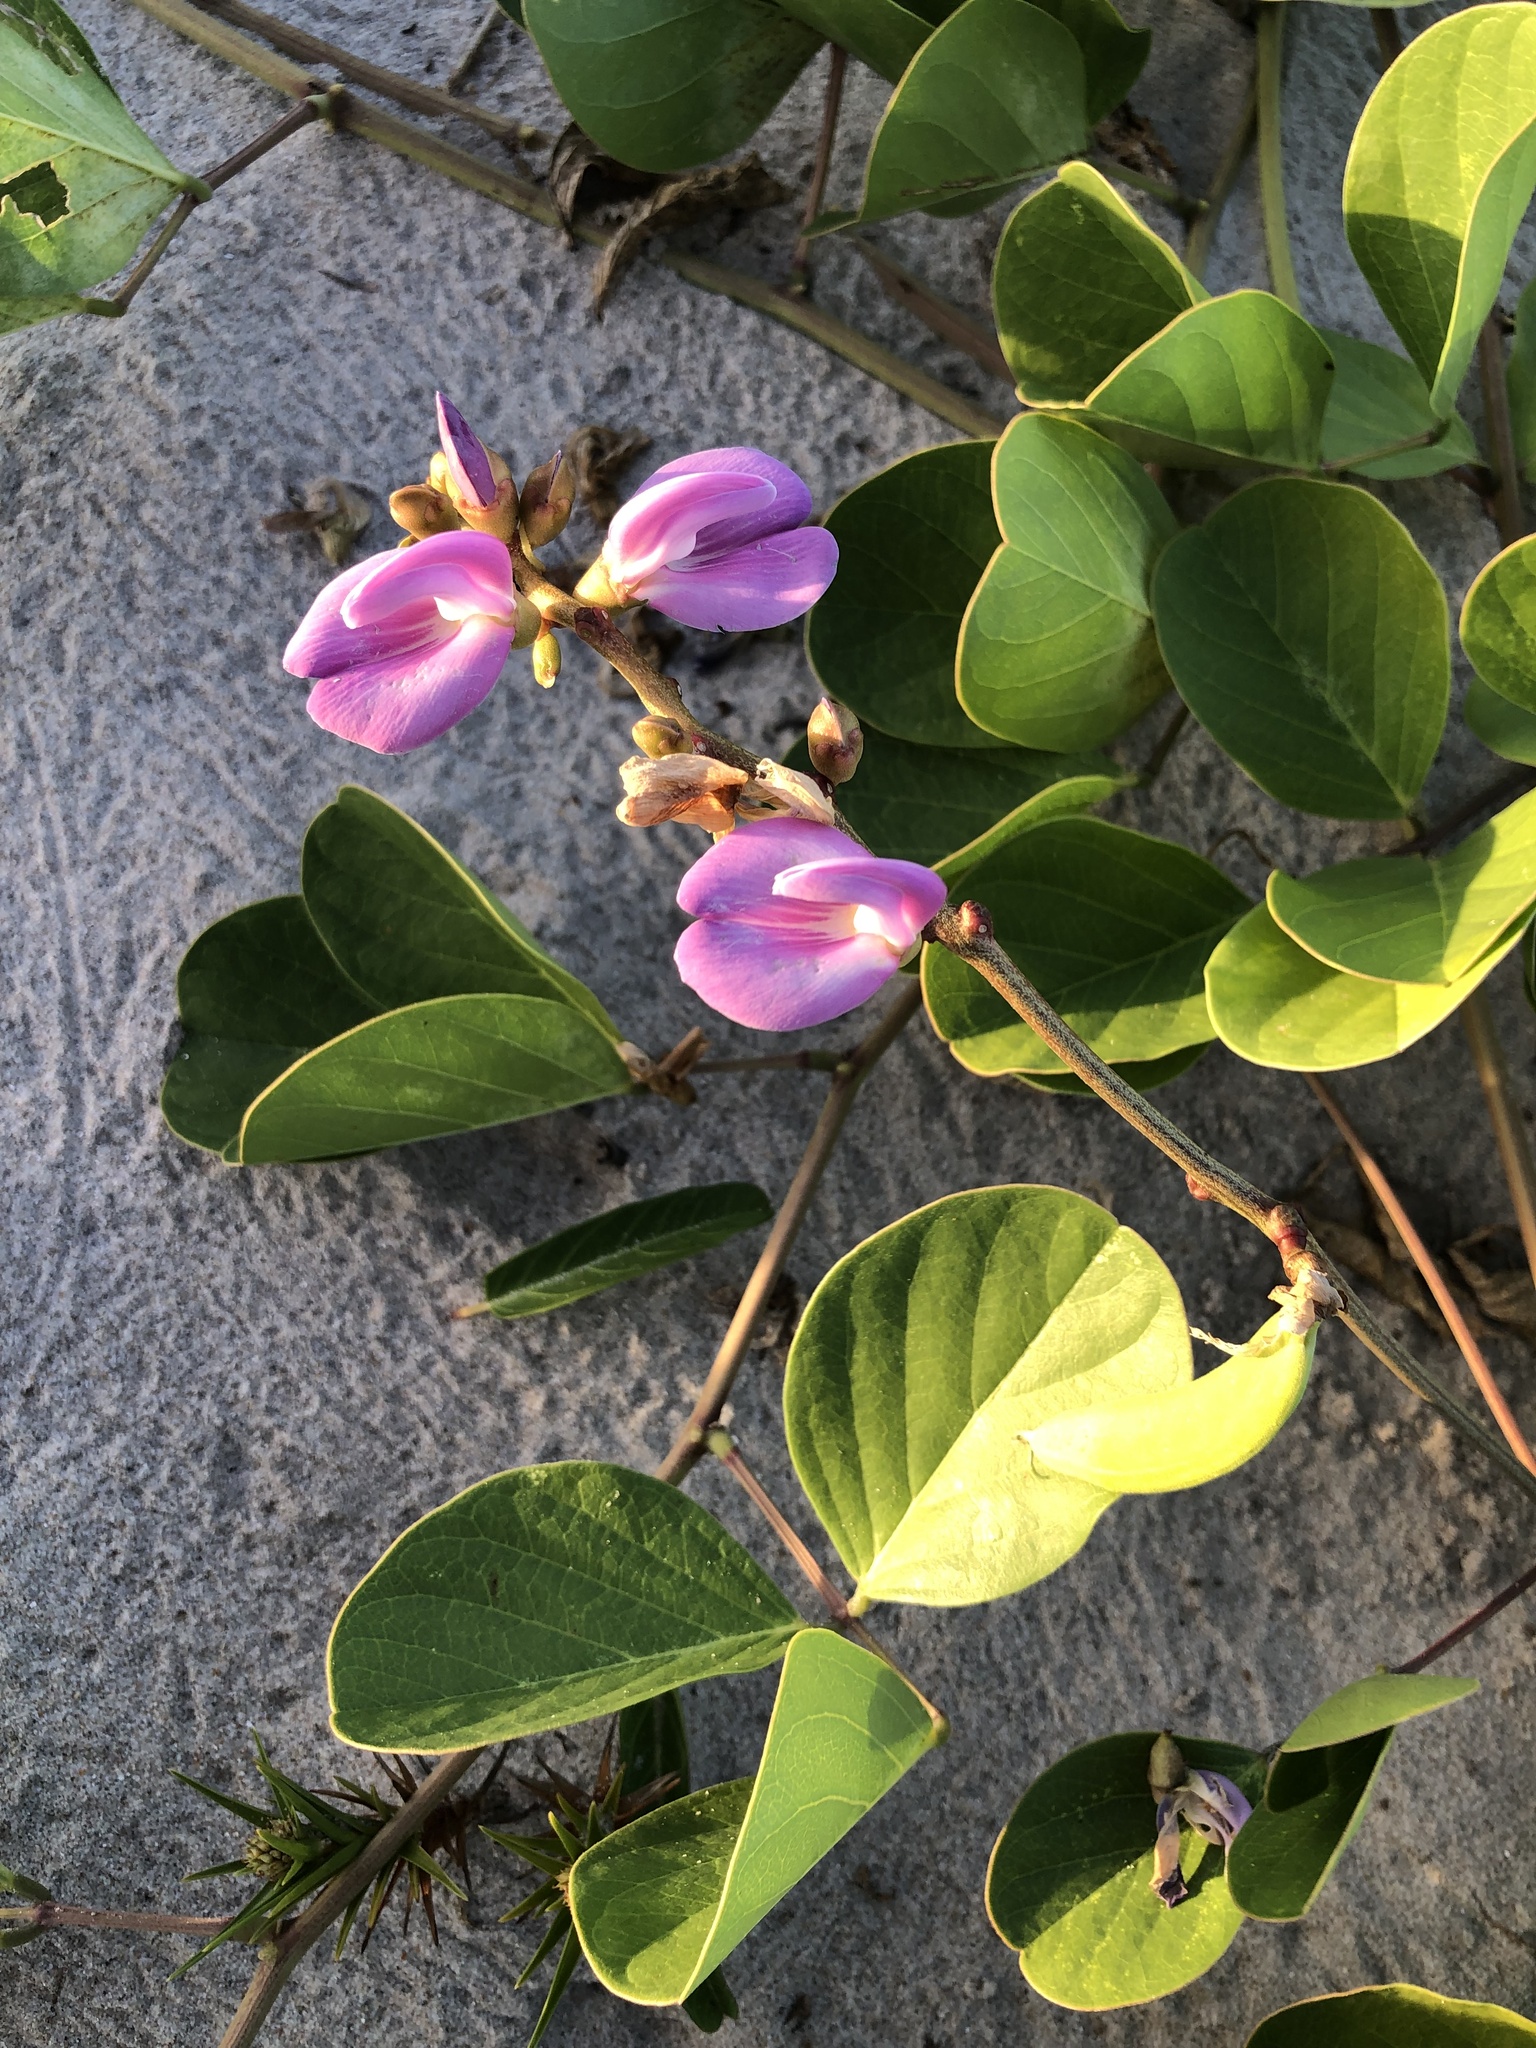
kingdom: Plantae
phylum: Tracheophyta
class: Magnoliopsida
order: Fabales
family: Fabaceae
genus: Canavalia
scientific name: Canavalia rosea
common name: Beach-bean
